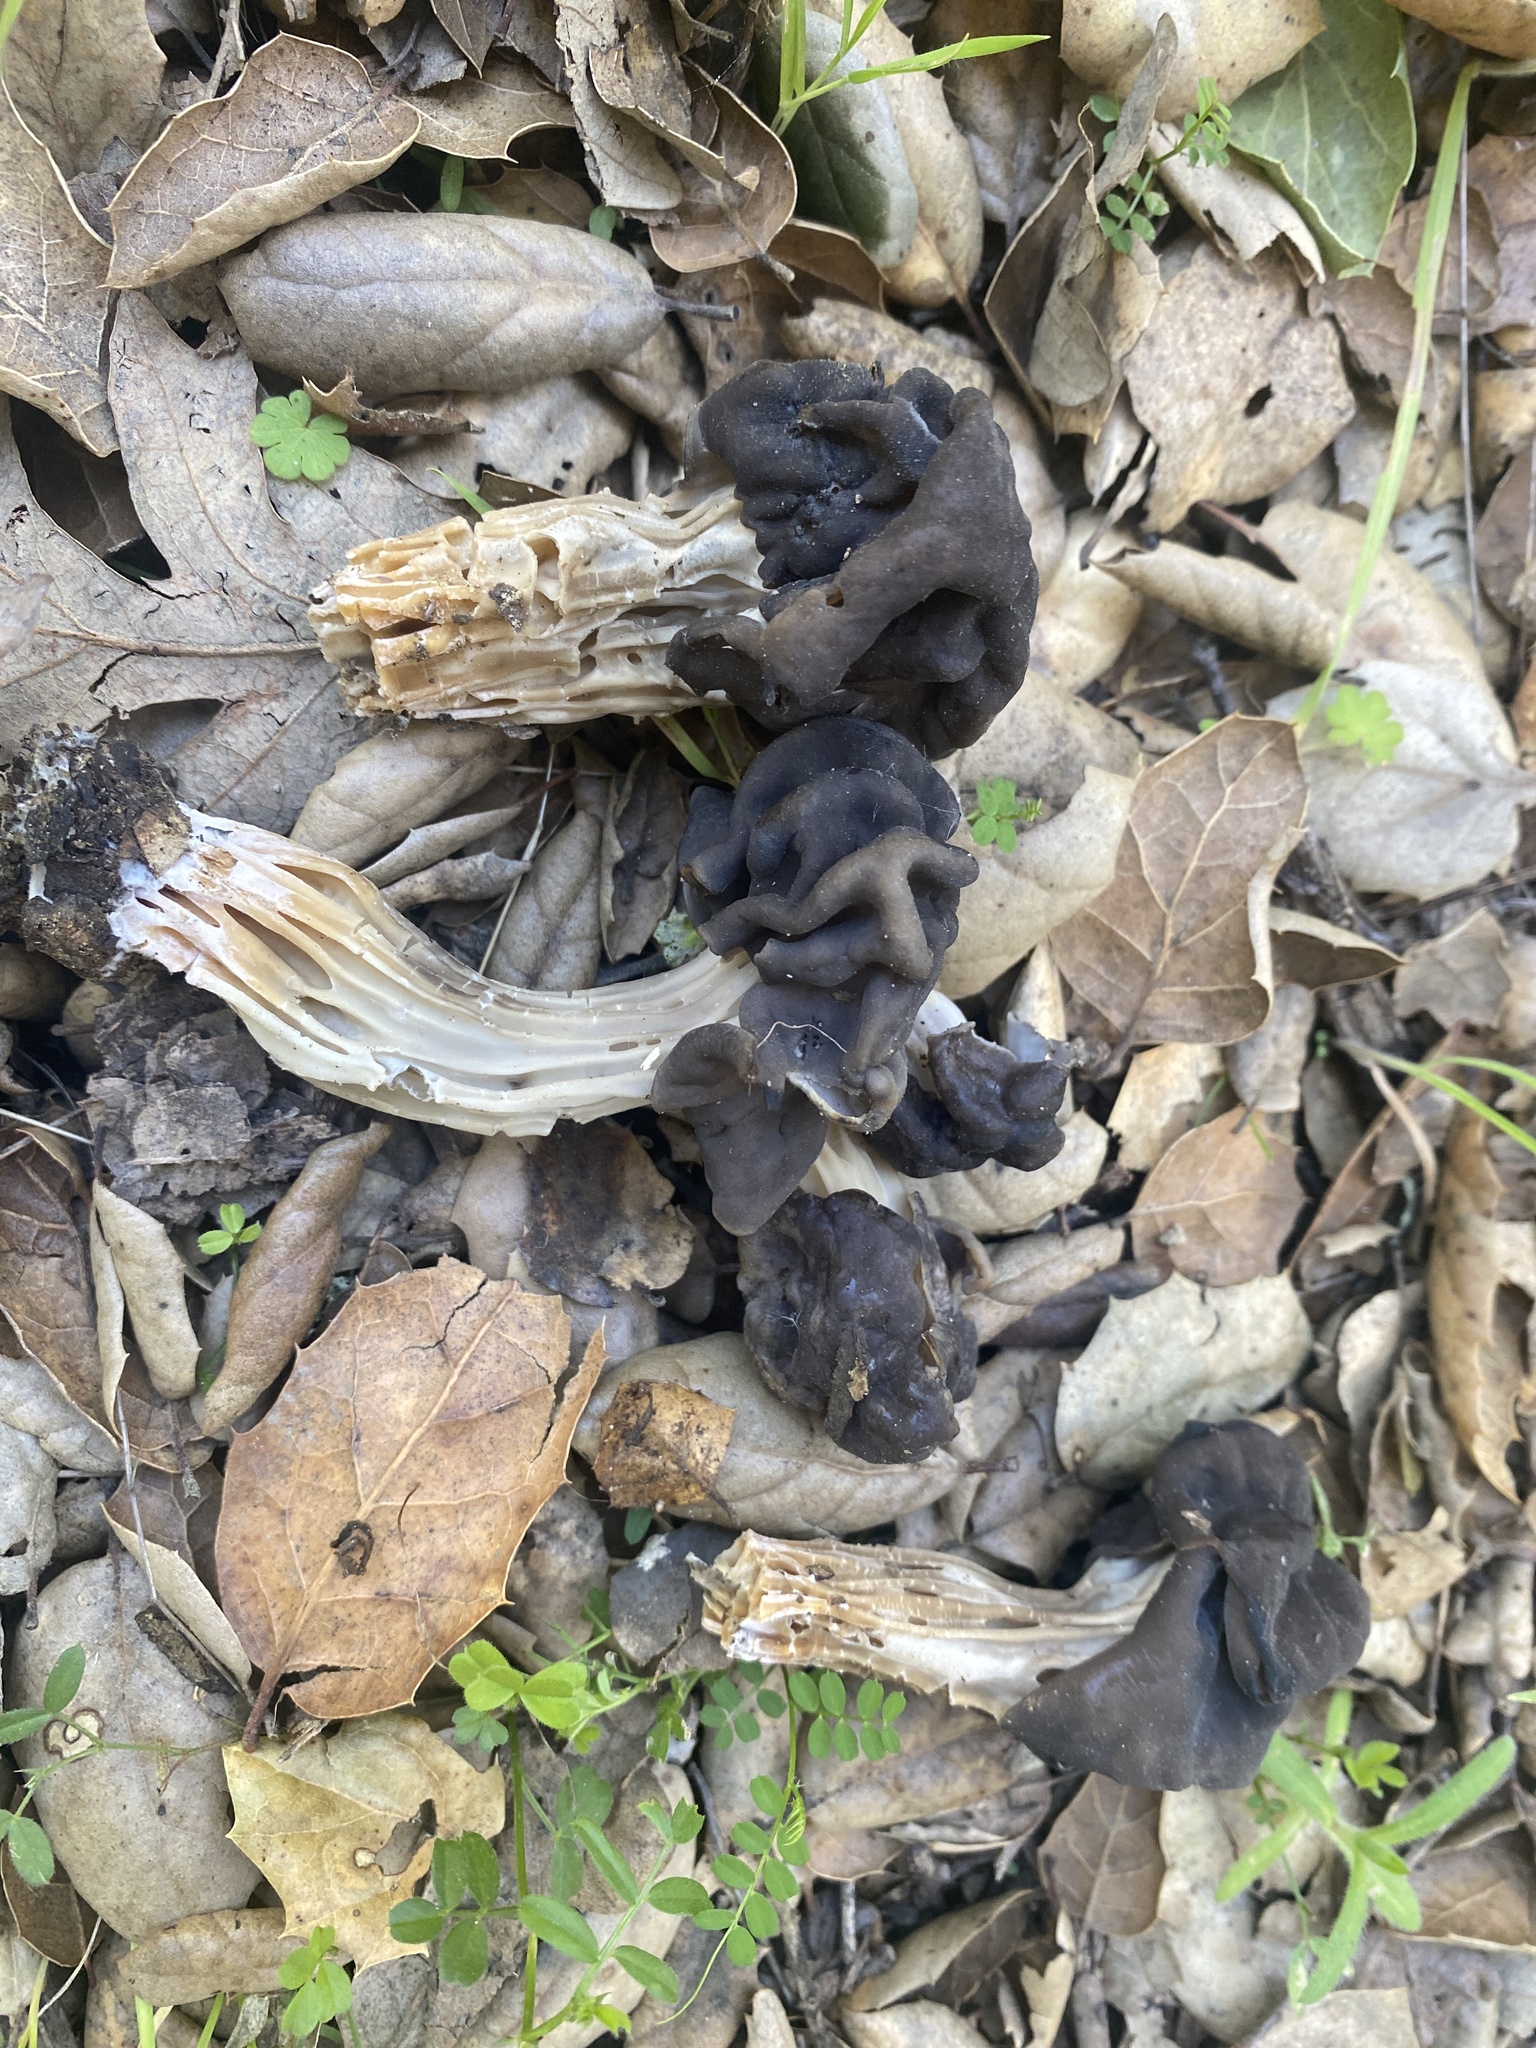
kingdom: Fungi
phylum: Ascomycota
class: Pezizomycetes
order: Pezizales
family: Helvellaceae
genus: Helvella
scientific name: Helvella dryophila
